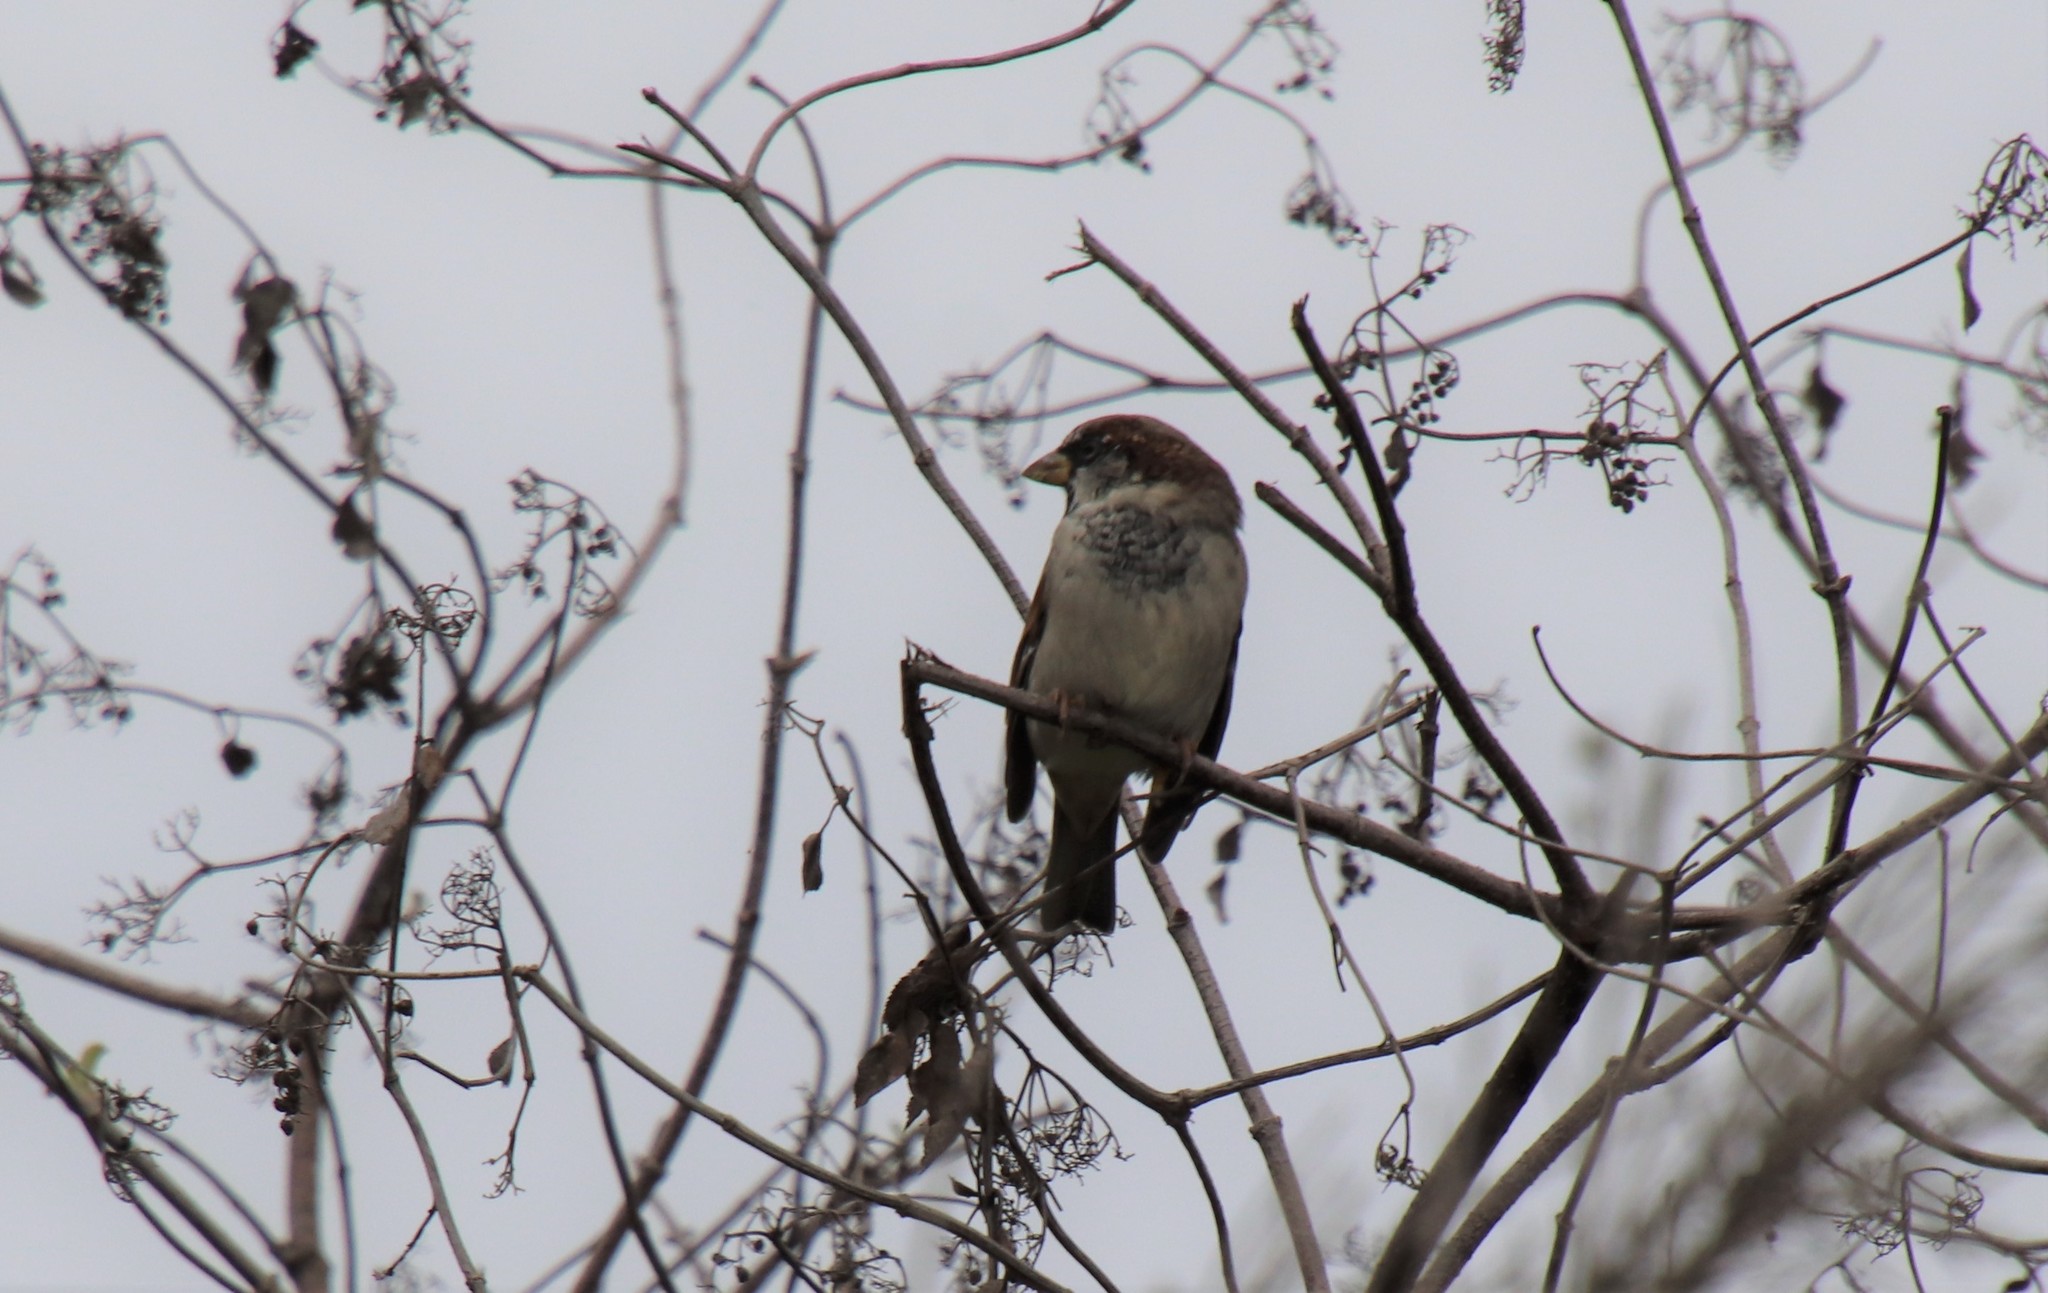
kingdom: Animalia
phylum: Chordata
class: Aves
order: Passeriformes
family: Passeridae
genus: Passer
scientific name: Passer domesticus
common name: House sparrow
